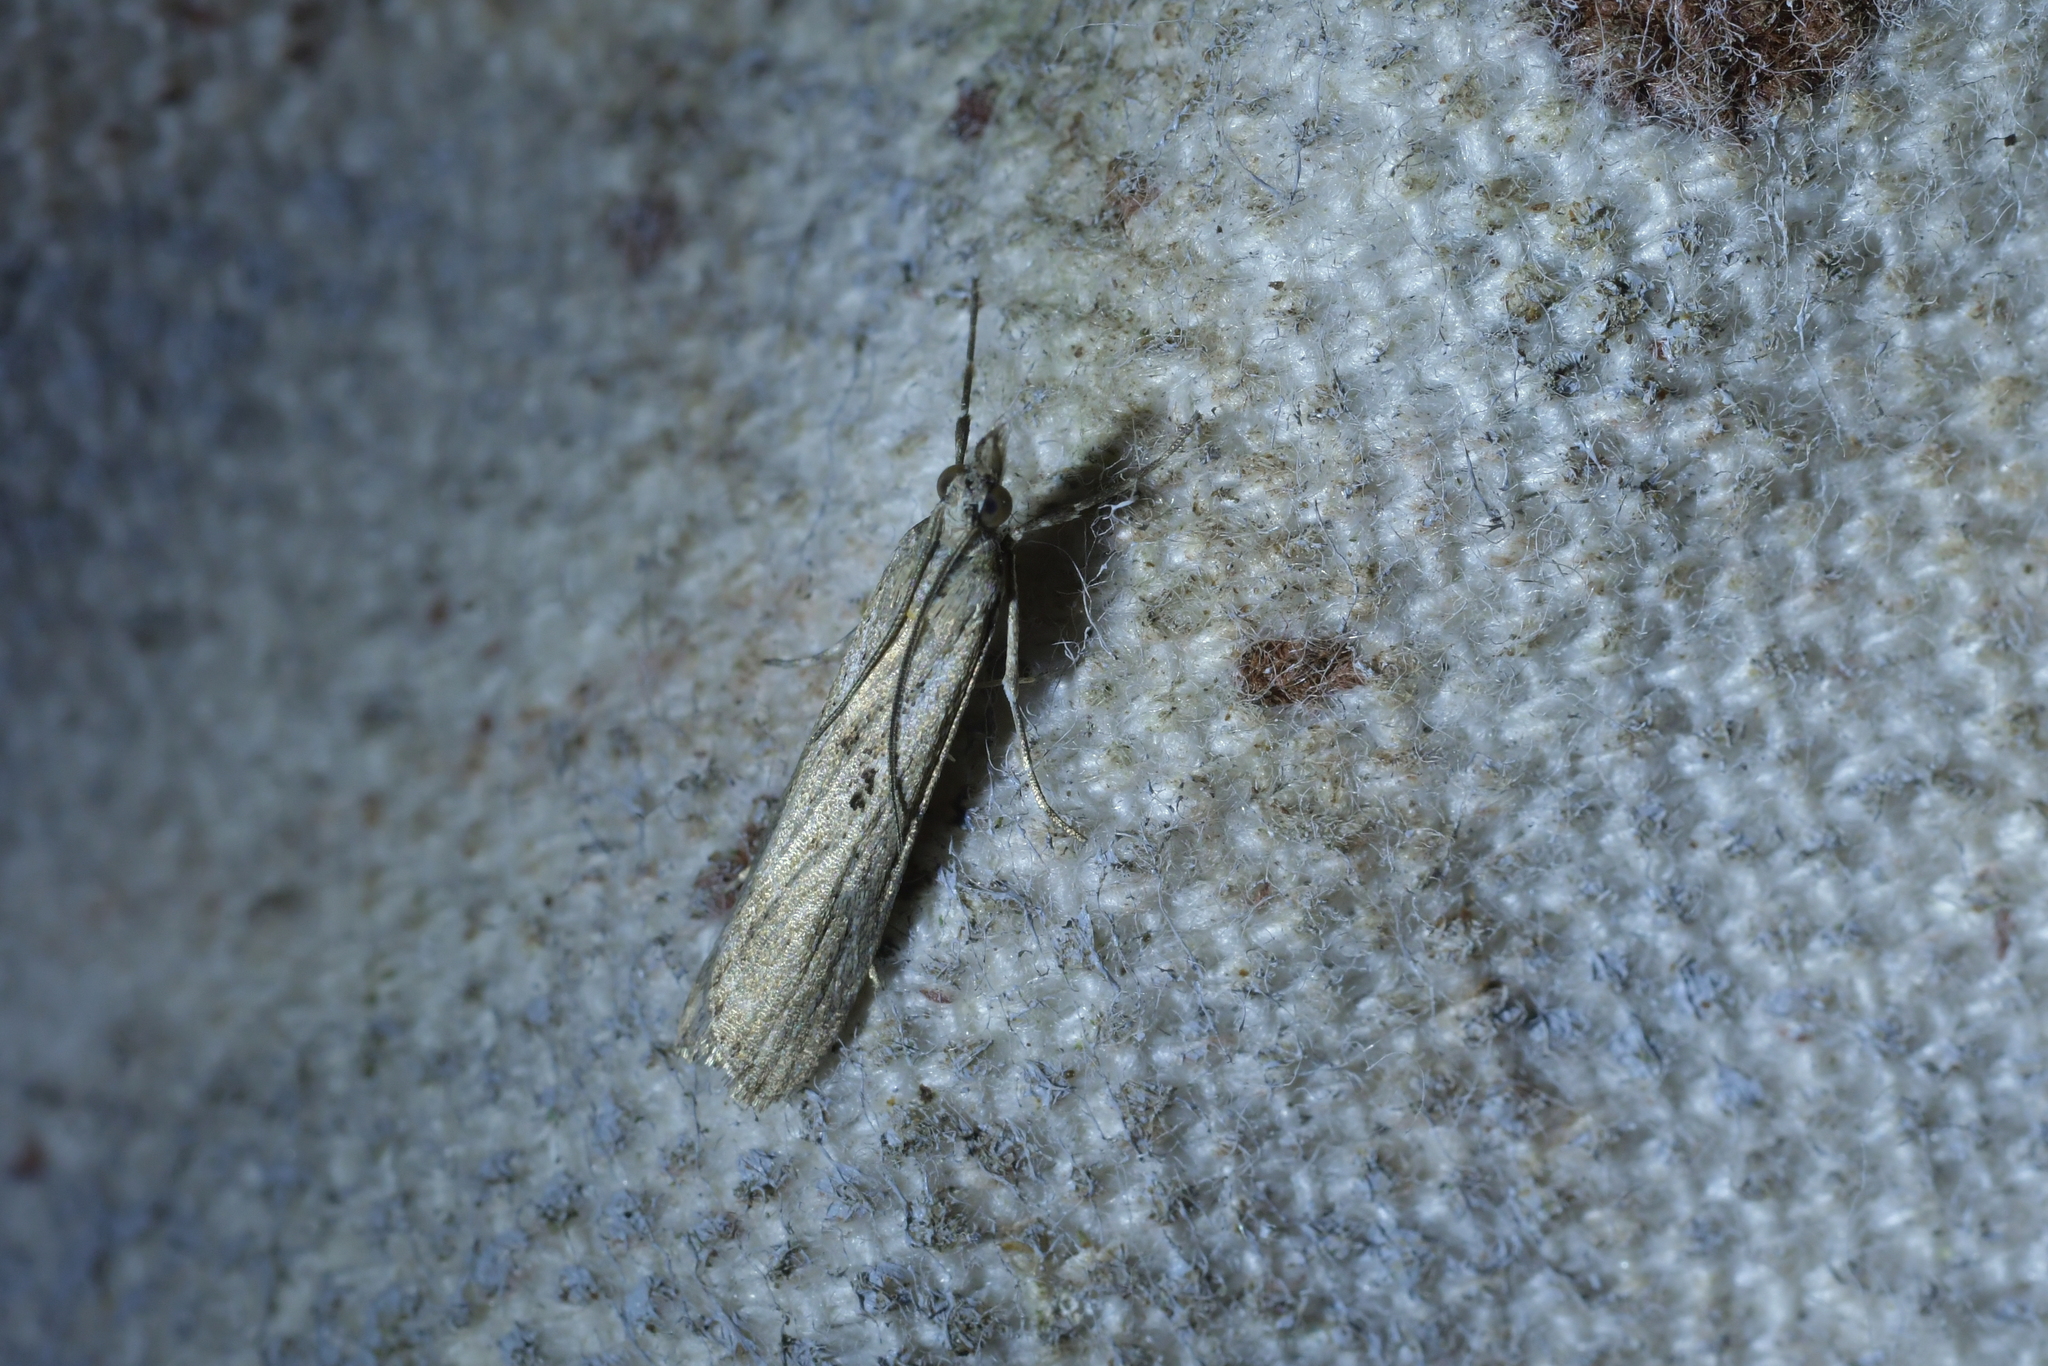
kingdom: Animalia
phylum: Arthropoda
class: Insecta
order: Lepidoptera
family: Crambidae
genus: Eudonia
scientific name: Eudonia leptalea
